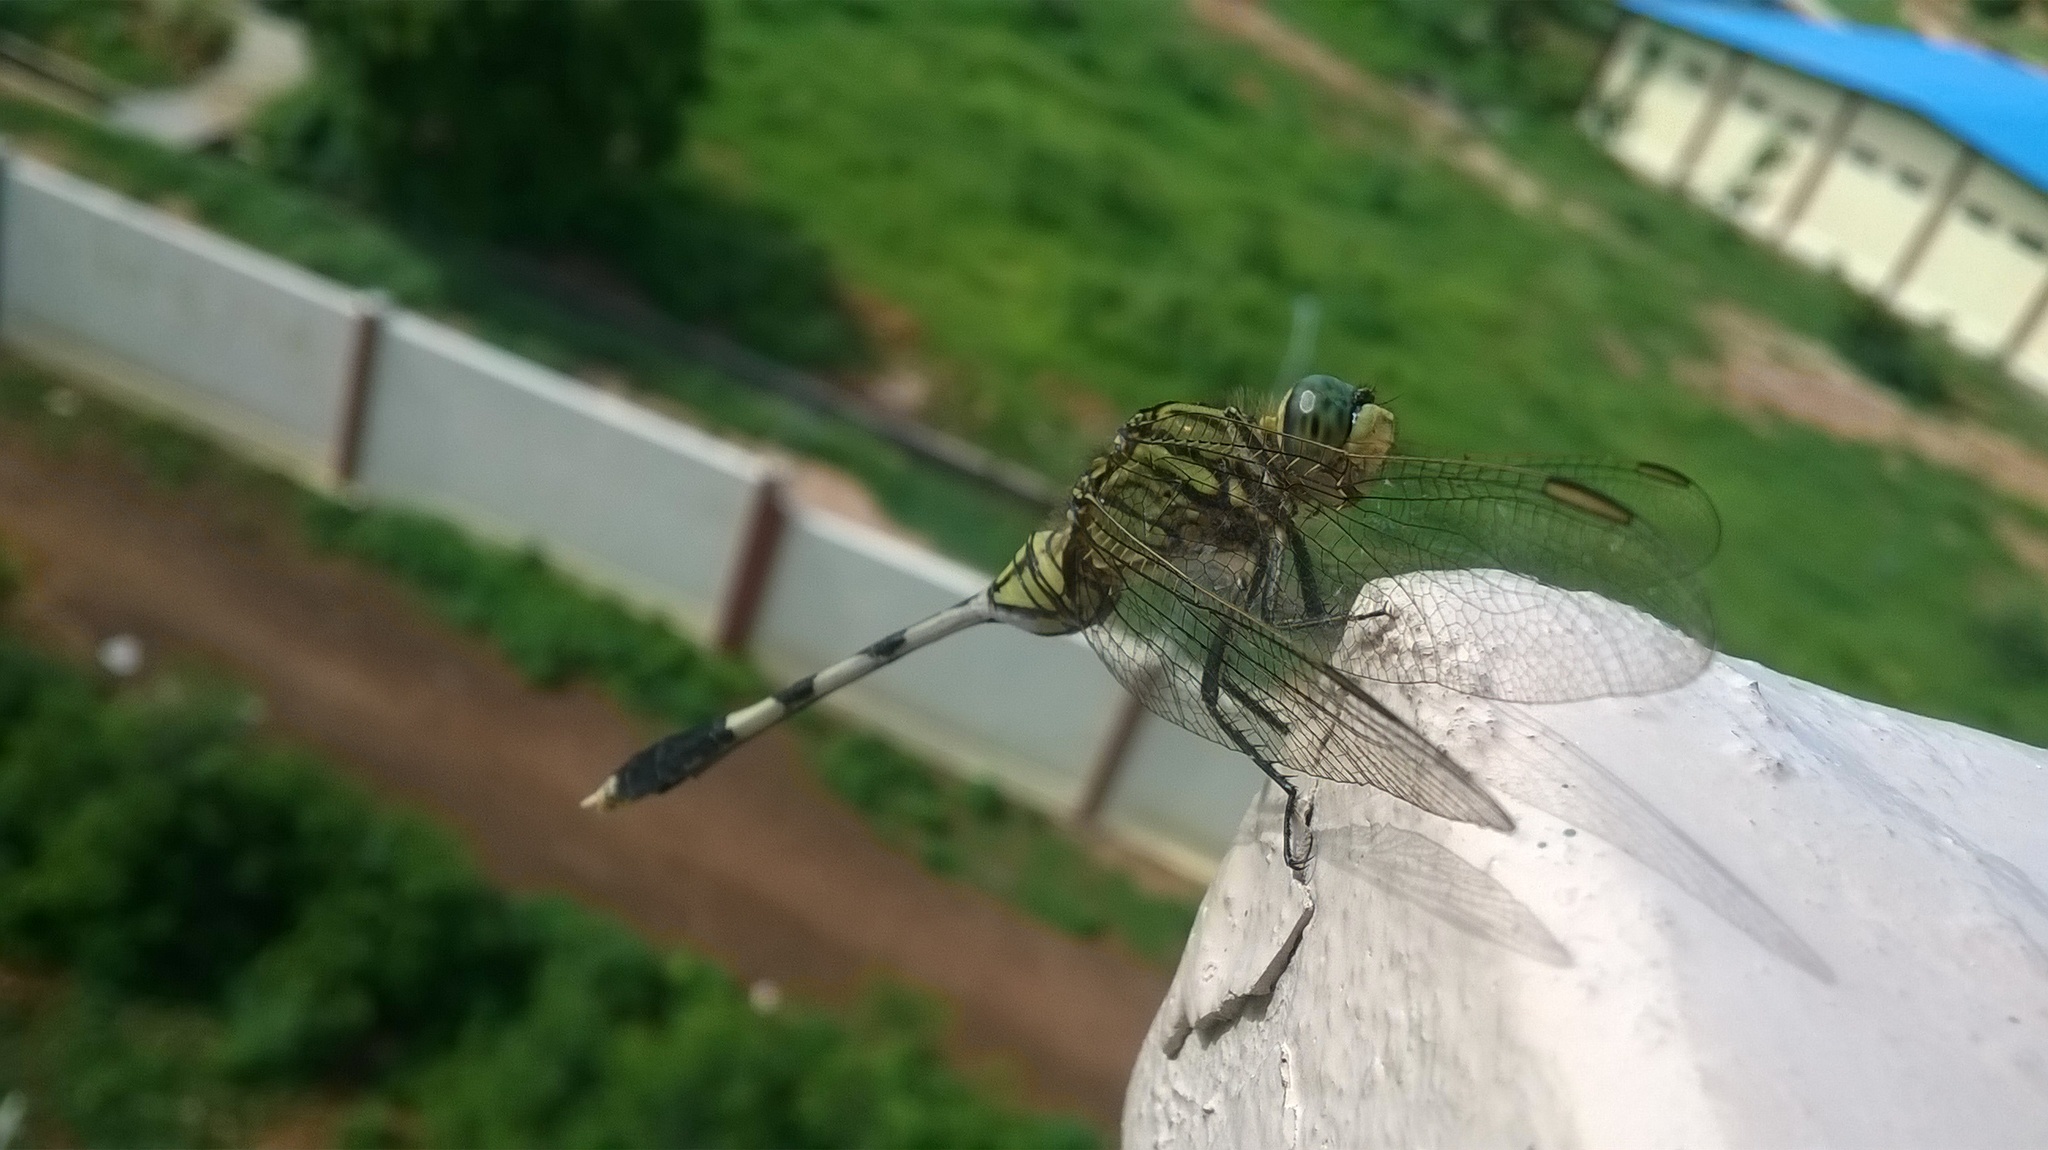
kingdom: Animalia
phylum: Arthropoda
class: Insecta
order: Odonata
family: Libellulidae
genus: Orthetrum
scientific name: Orthetrum sabina
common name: Slender skimmer
